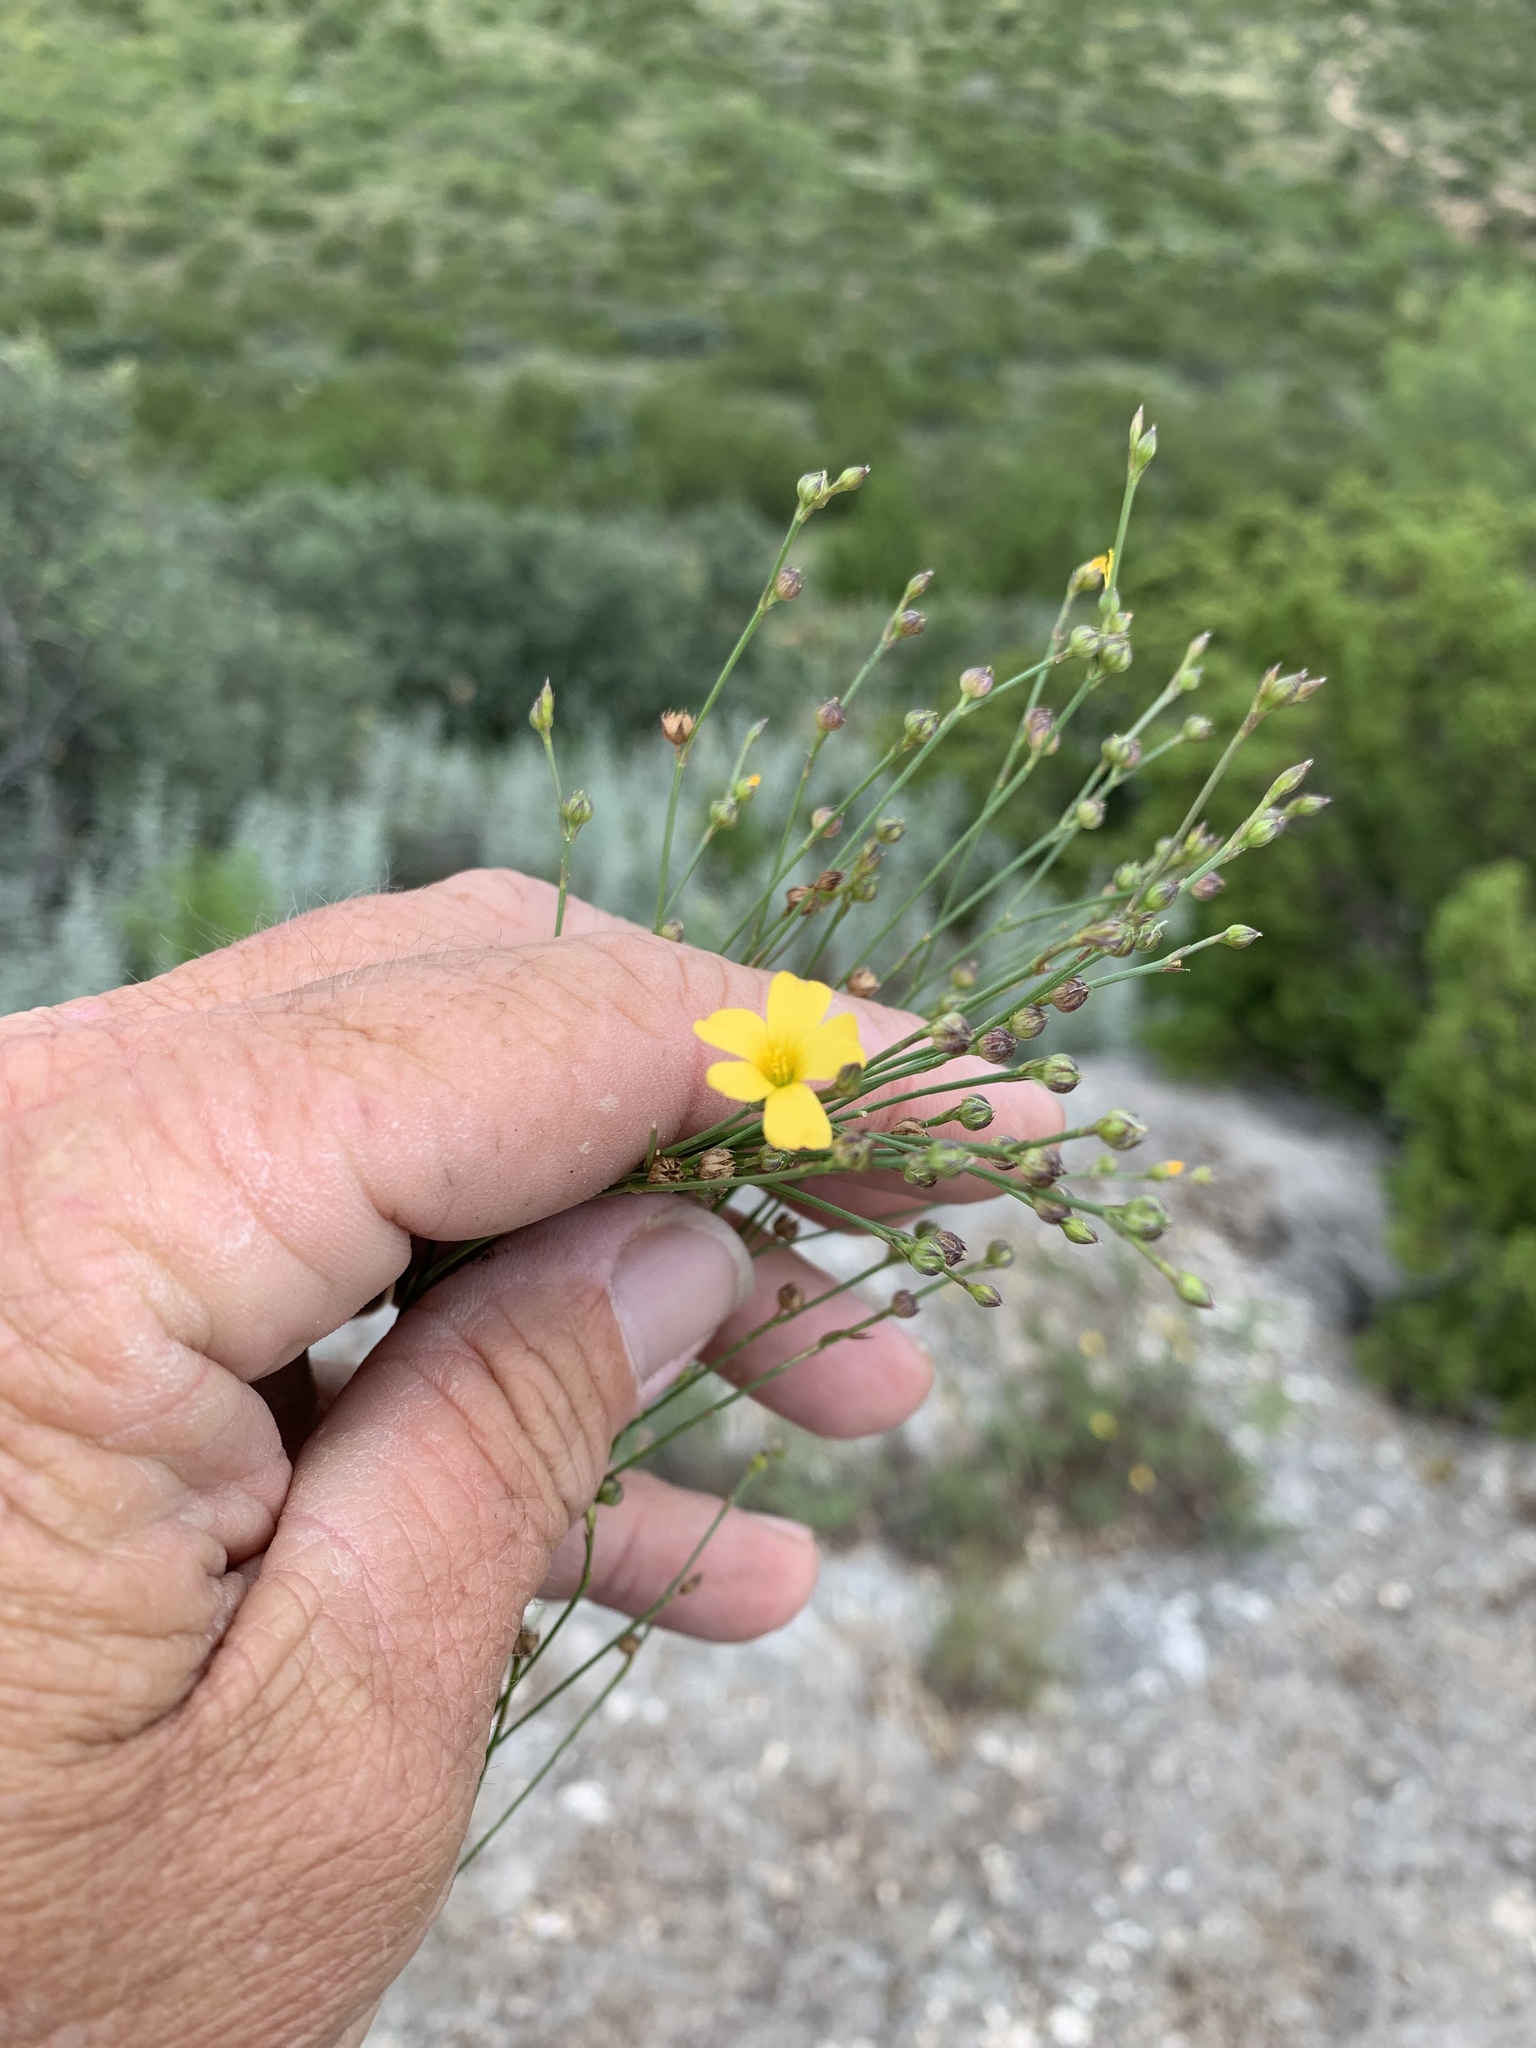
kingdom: Plantae
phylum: Tracheophyta
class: Magnoliopsida
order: Malpighiales
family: Linaceae
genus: Linum
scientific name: Linum rupestre
